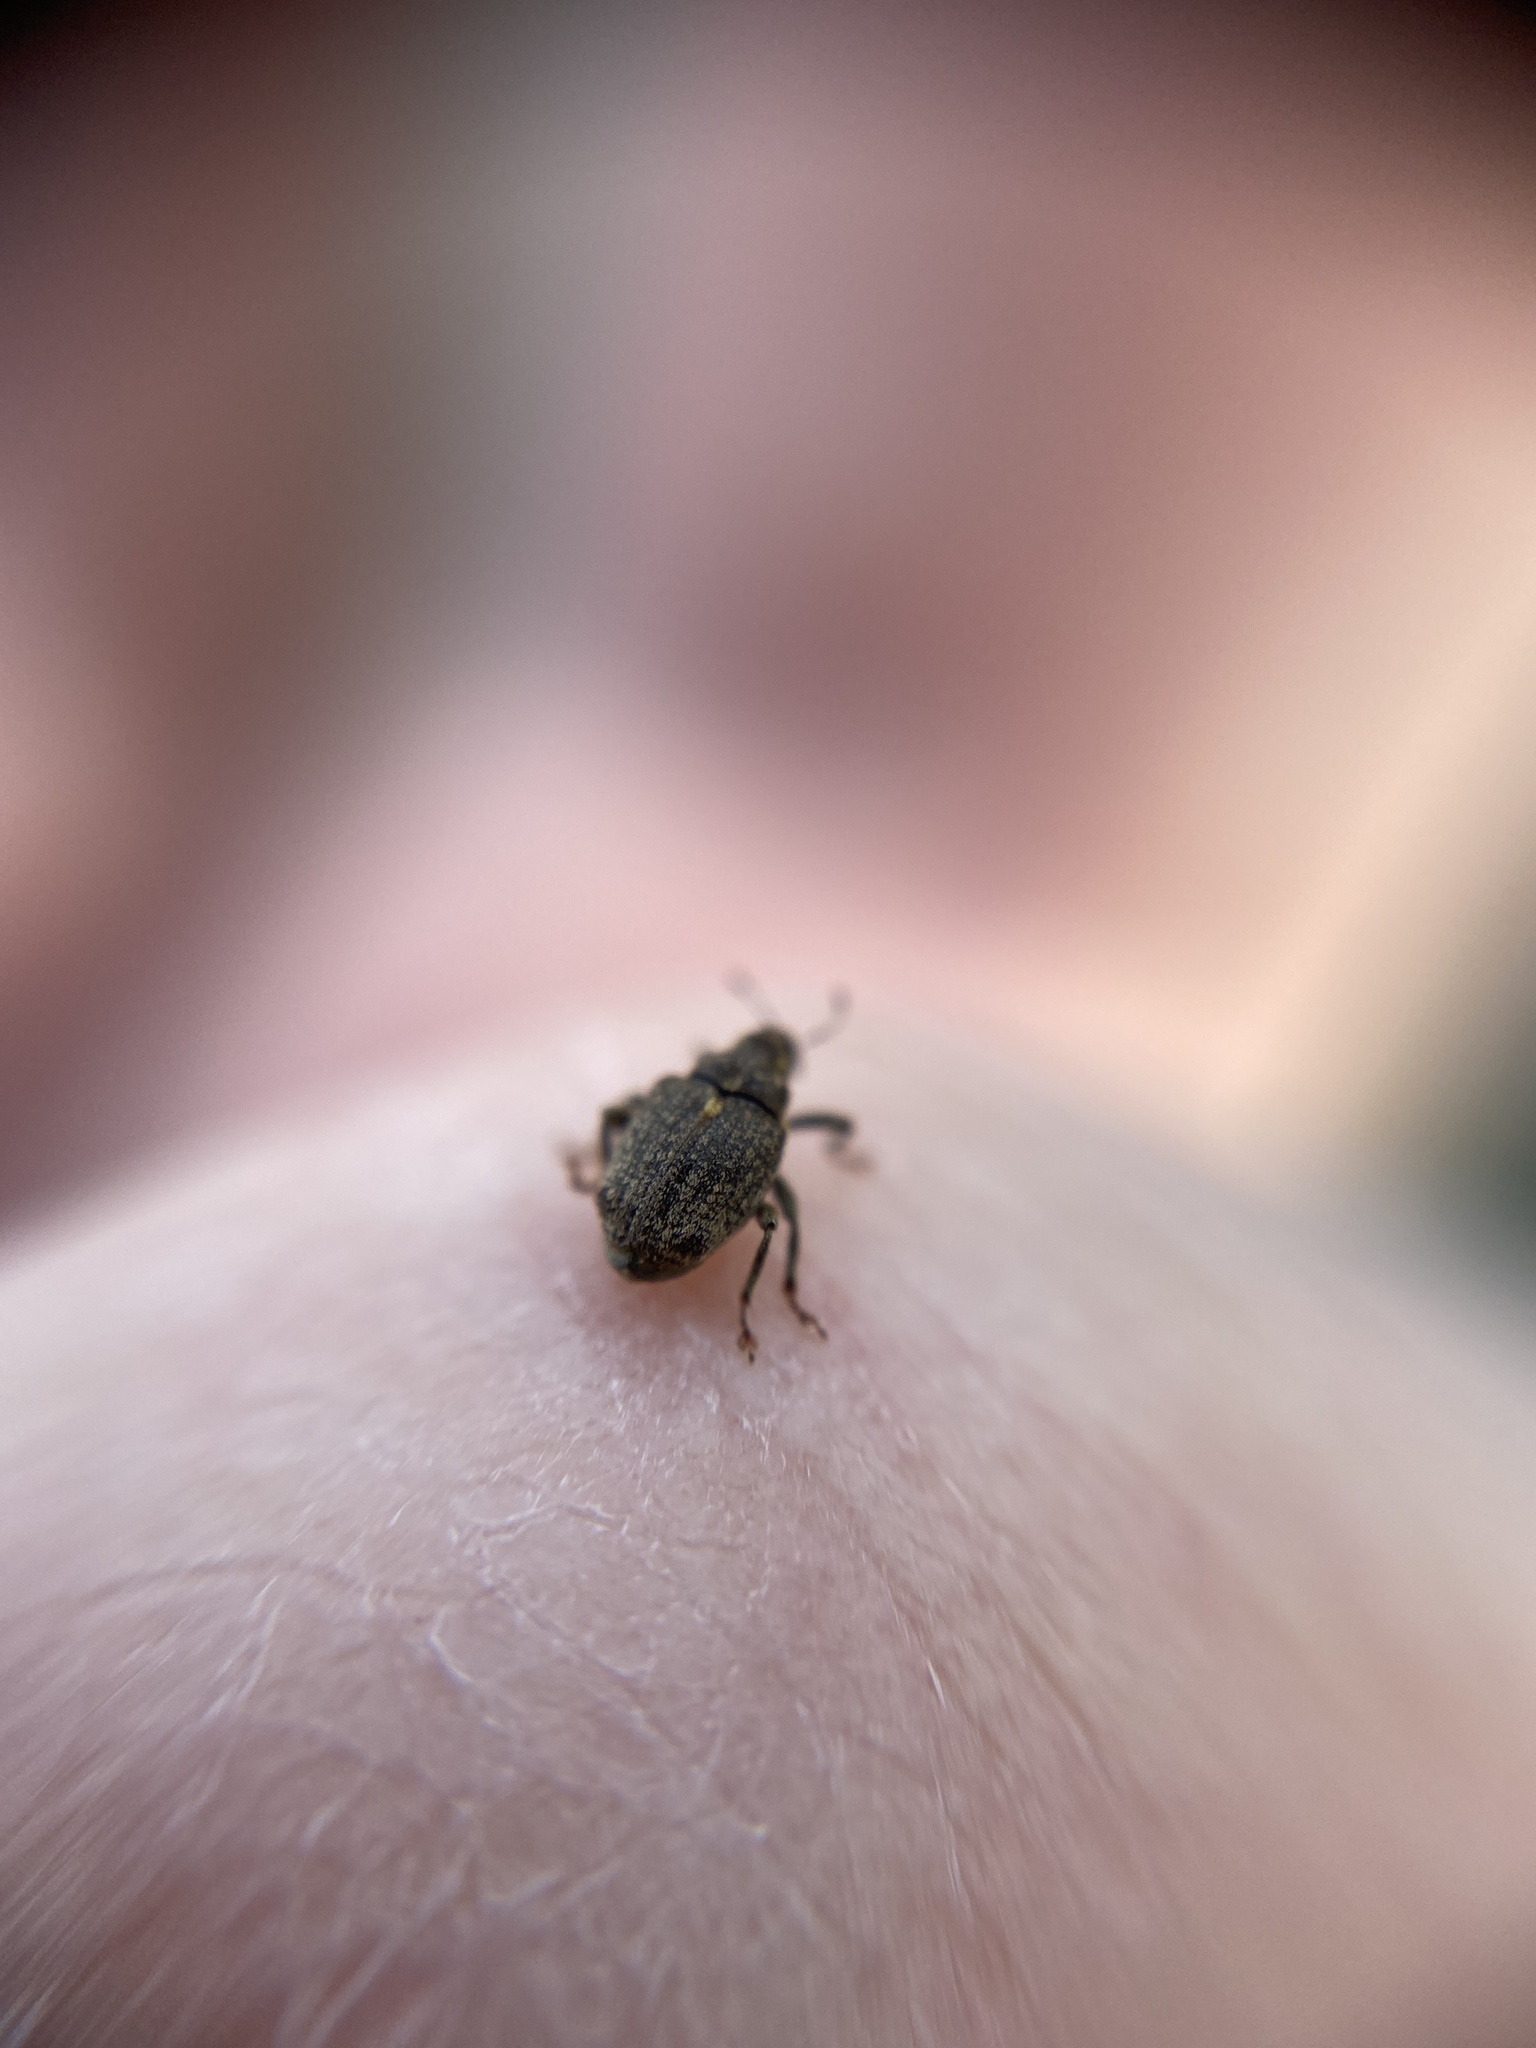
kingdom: Animalia
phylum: Arthropoda
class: Insecta
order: Coleoptera
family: Curculionidae
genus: Ceutorhynchus
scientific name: Ceutorhynchus pallidactylus
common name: Cabbage stem weavil
